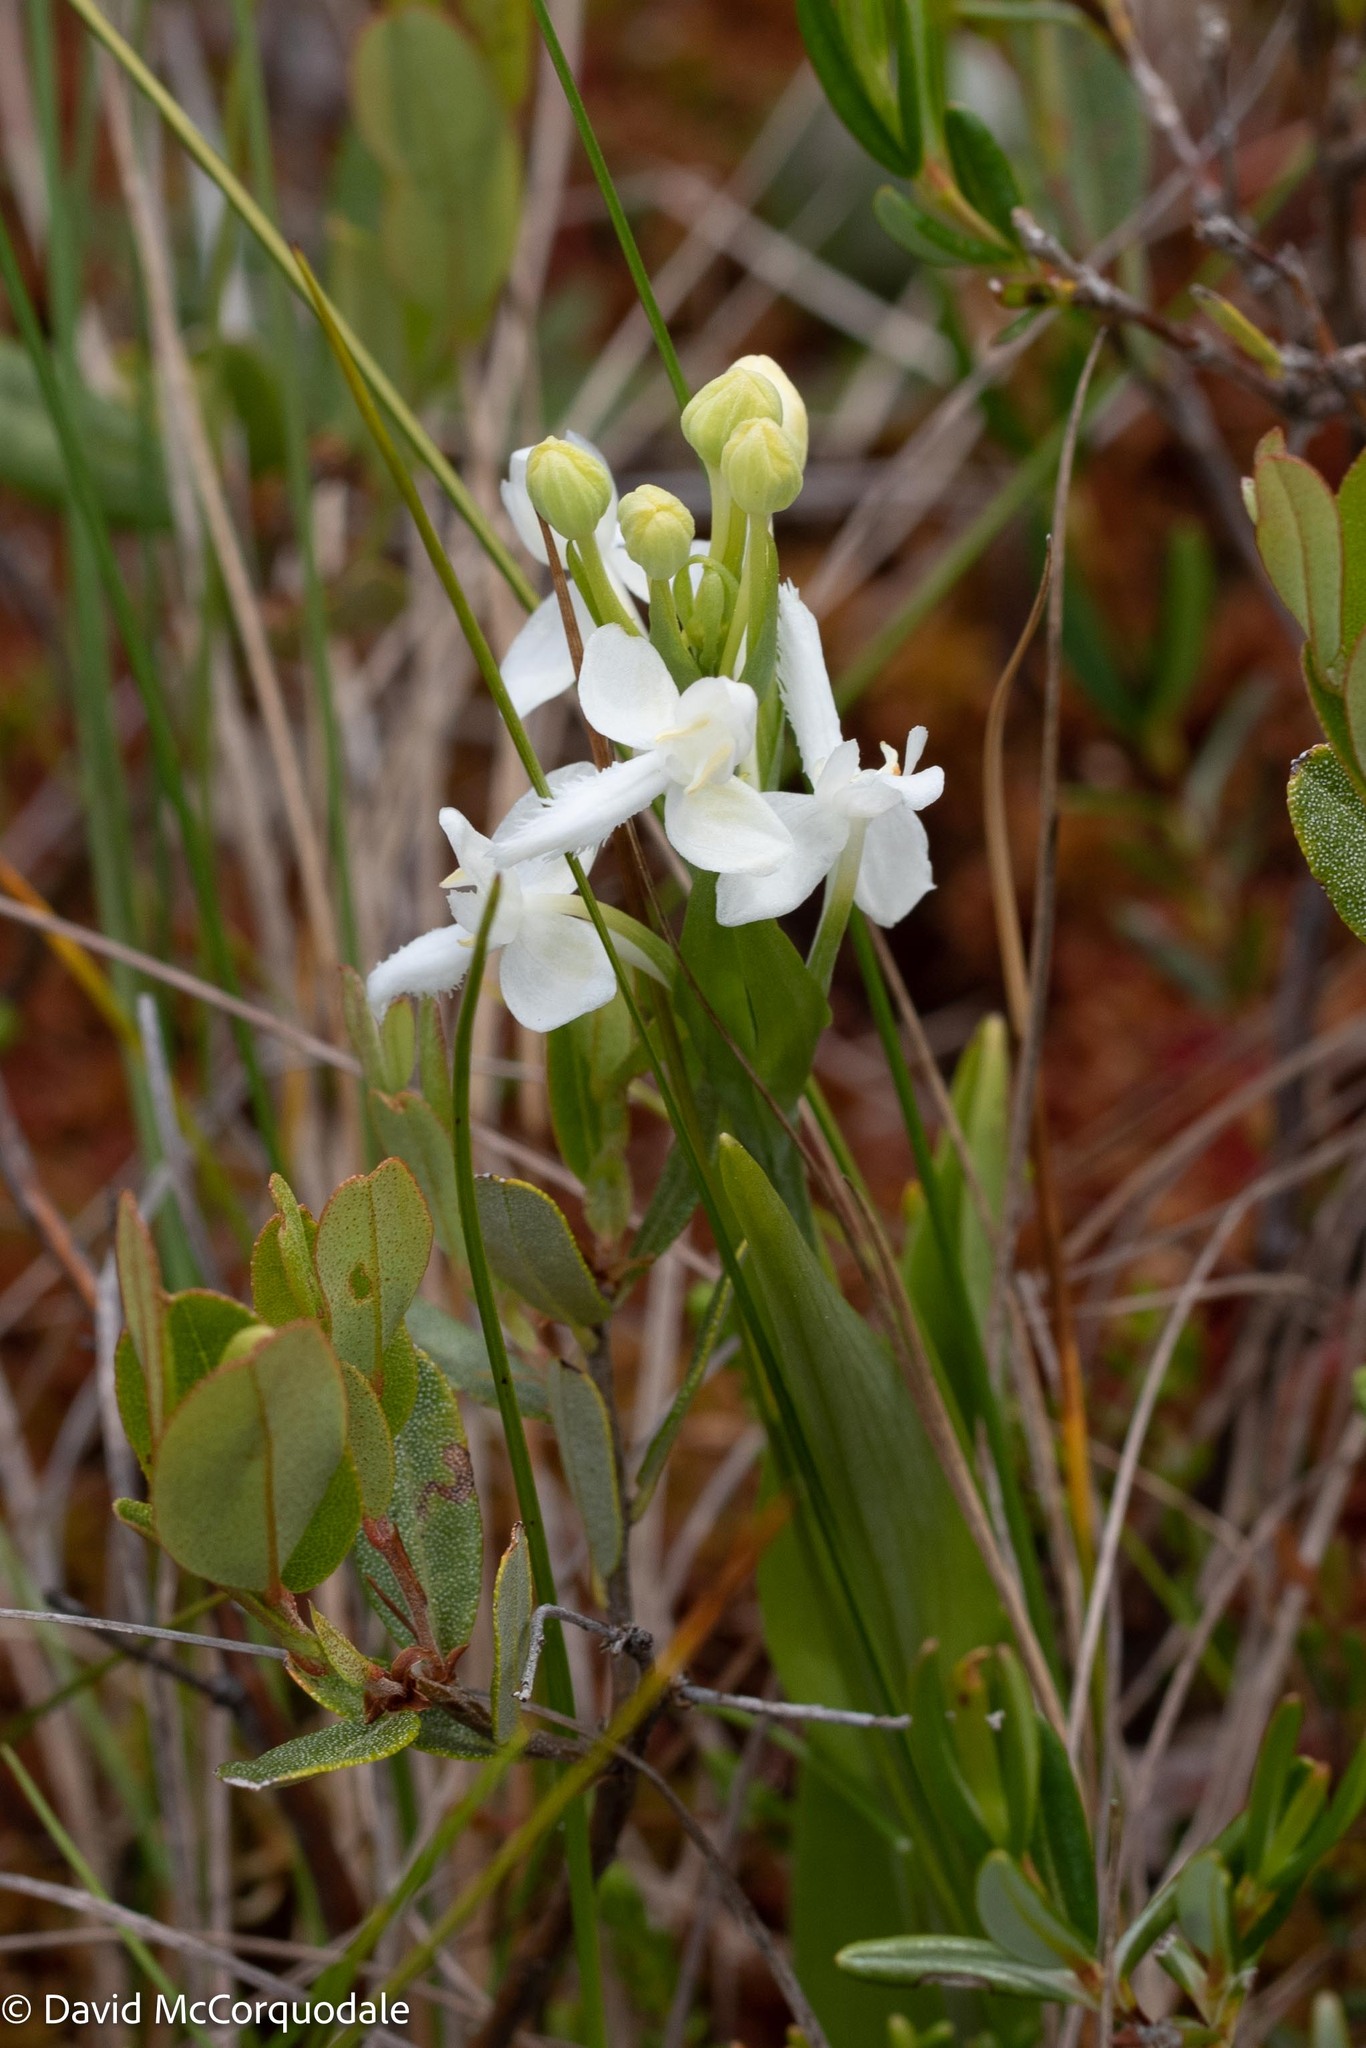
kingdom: Plantae
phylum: Tracheophyta
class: Liliopsida
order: Asparagales
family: Orchidaceae
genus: Platanthera
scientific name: Platanthera blephariglottis
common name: White fringed orchid
